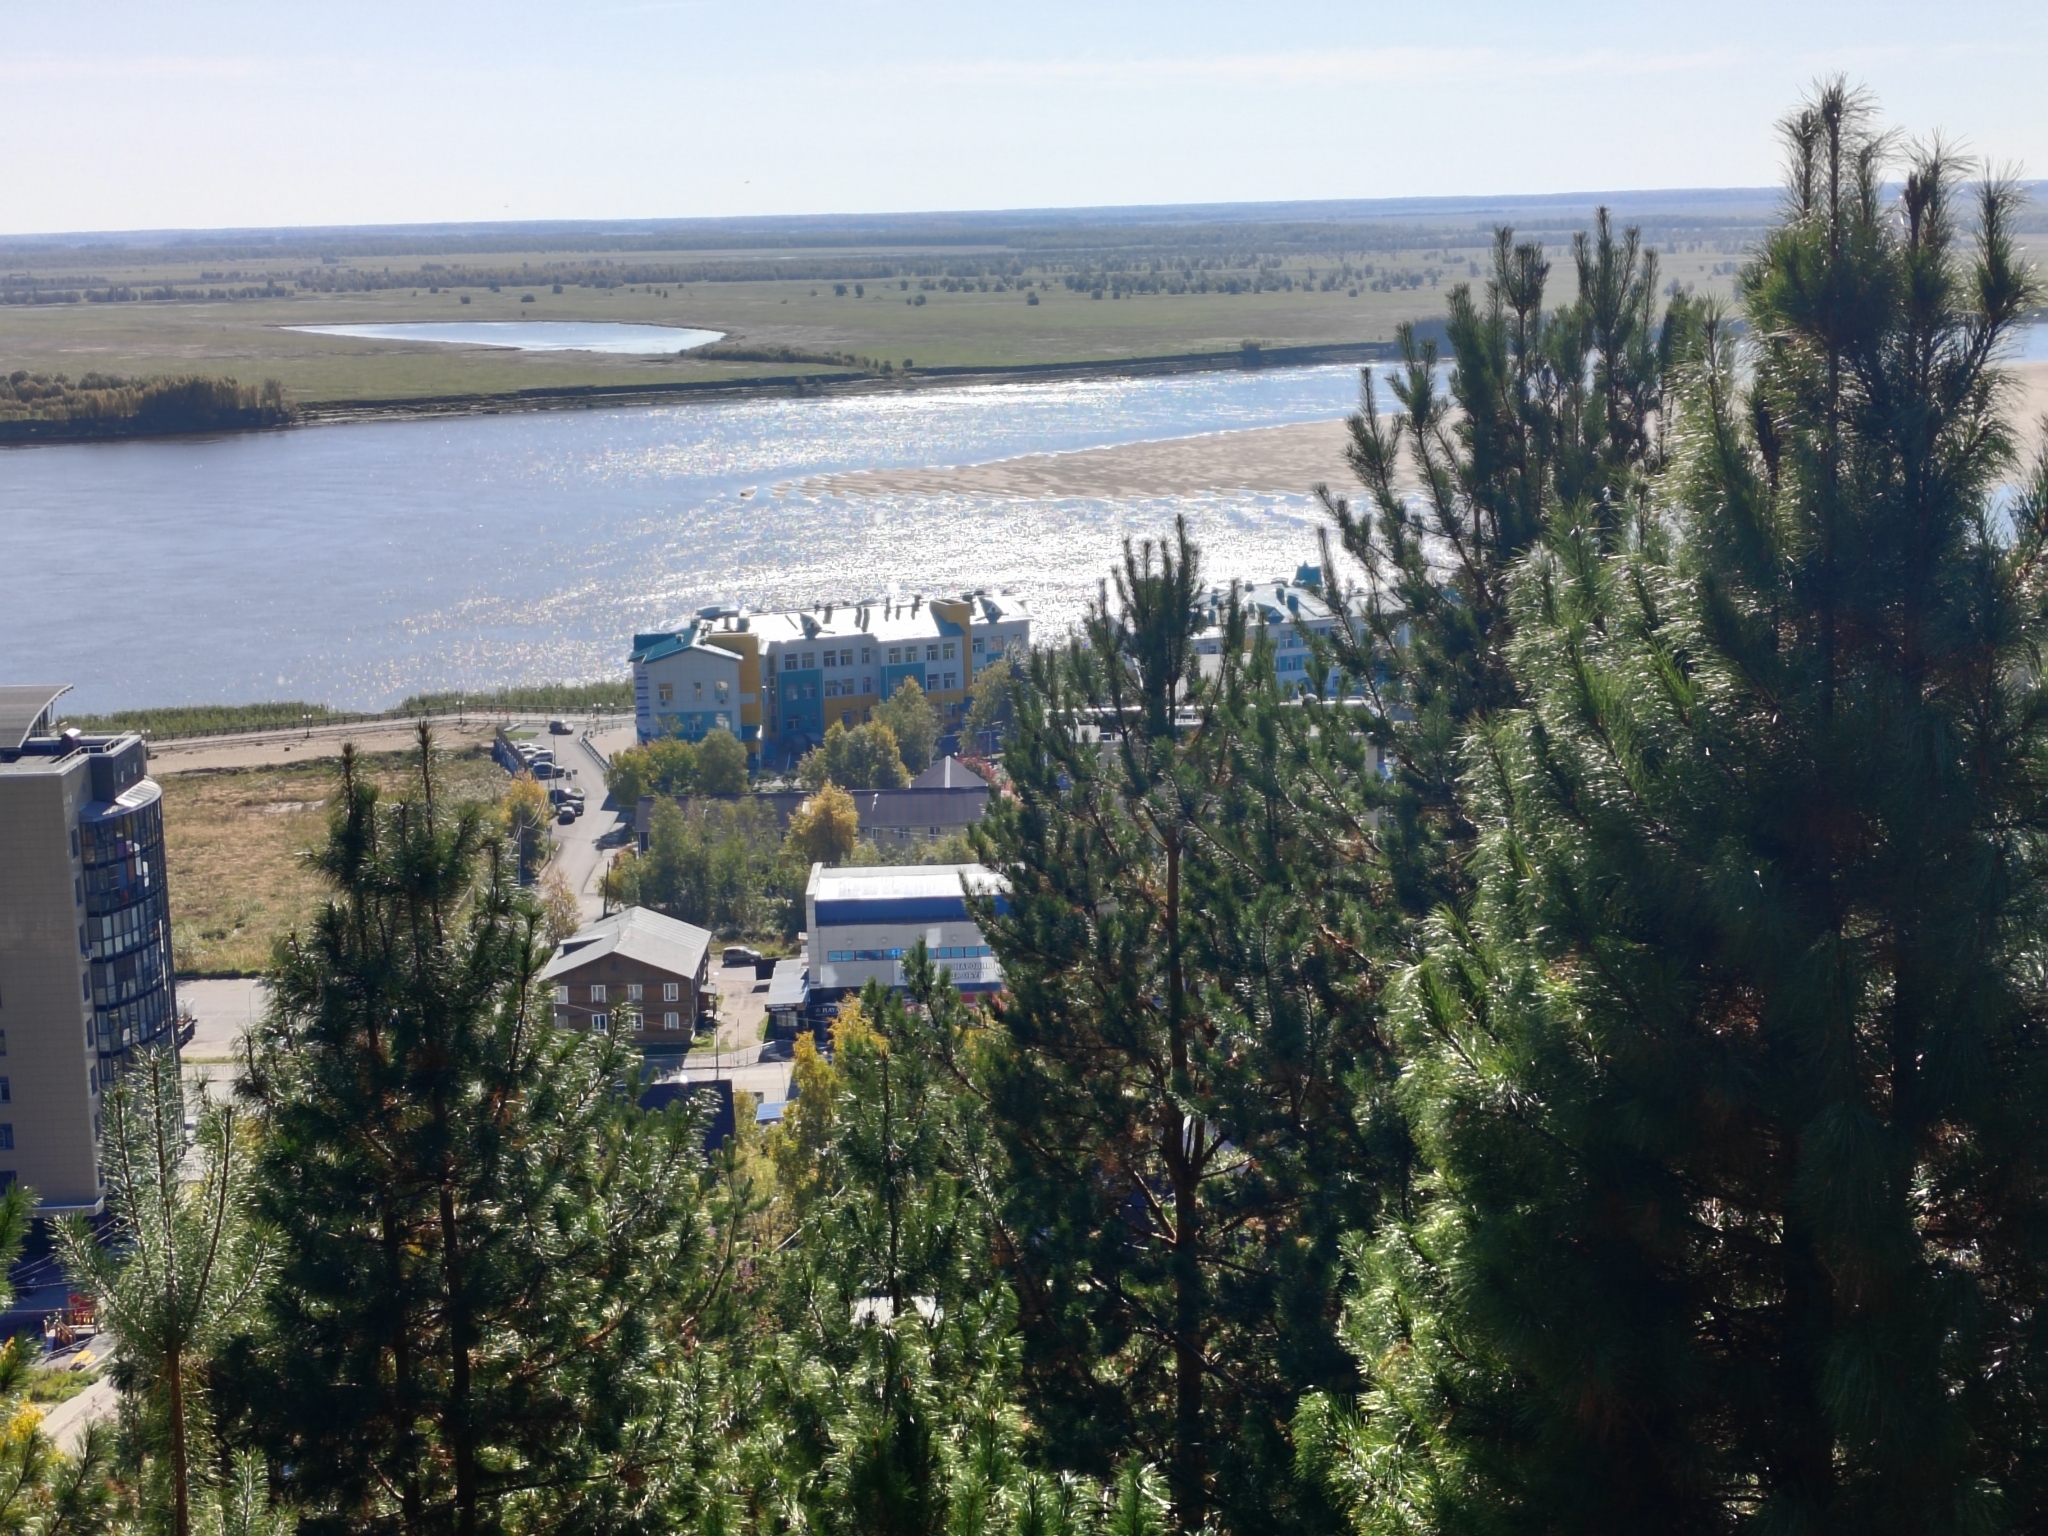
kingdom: Plantae
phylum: Tracheophyta
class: Pinopsida
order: Pinales
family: Pinaceae
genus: Pinus
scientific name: Pinus sylvestris
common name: Scots pine
